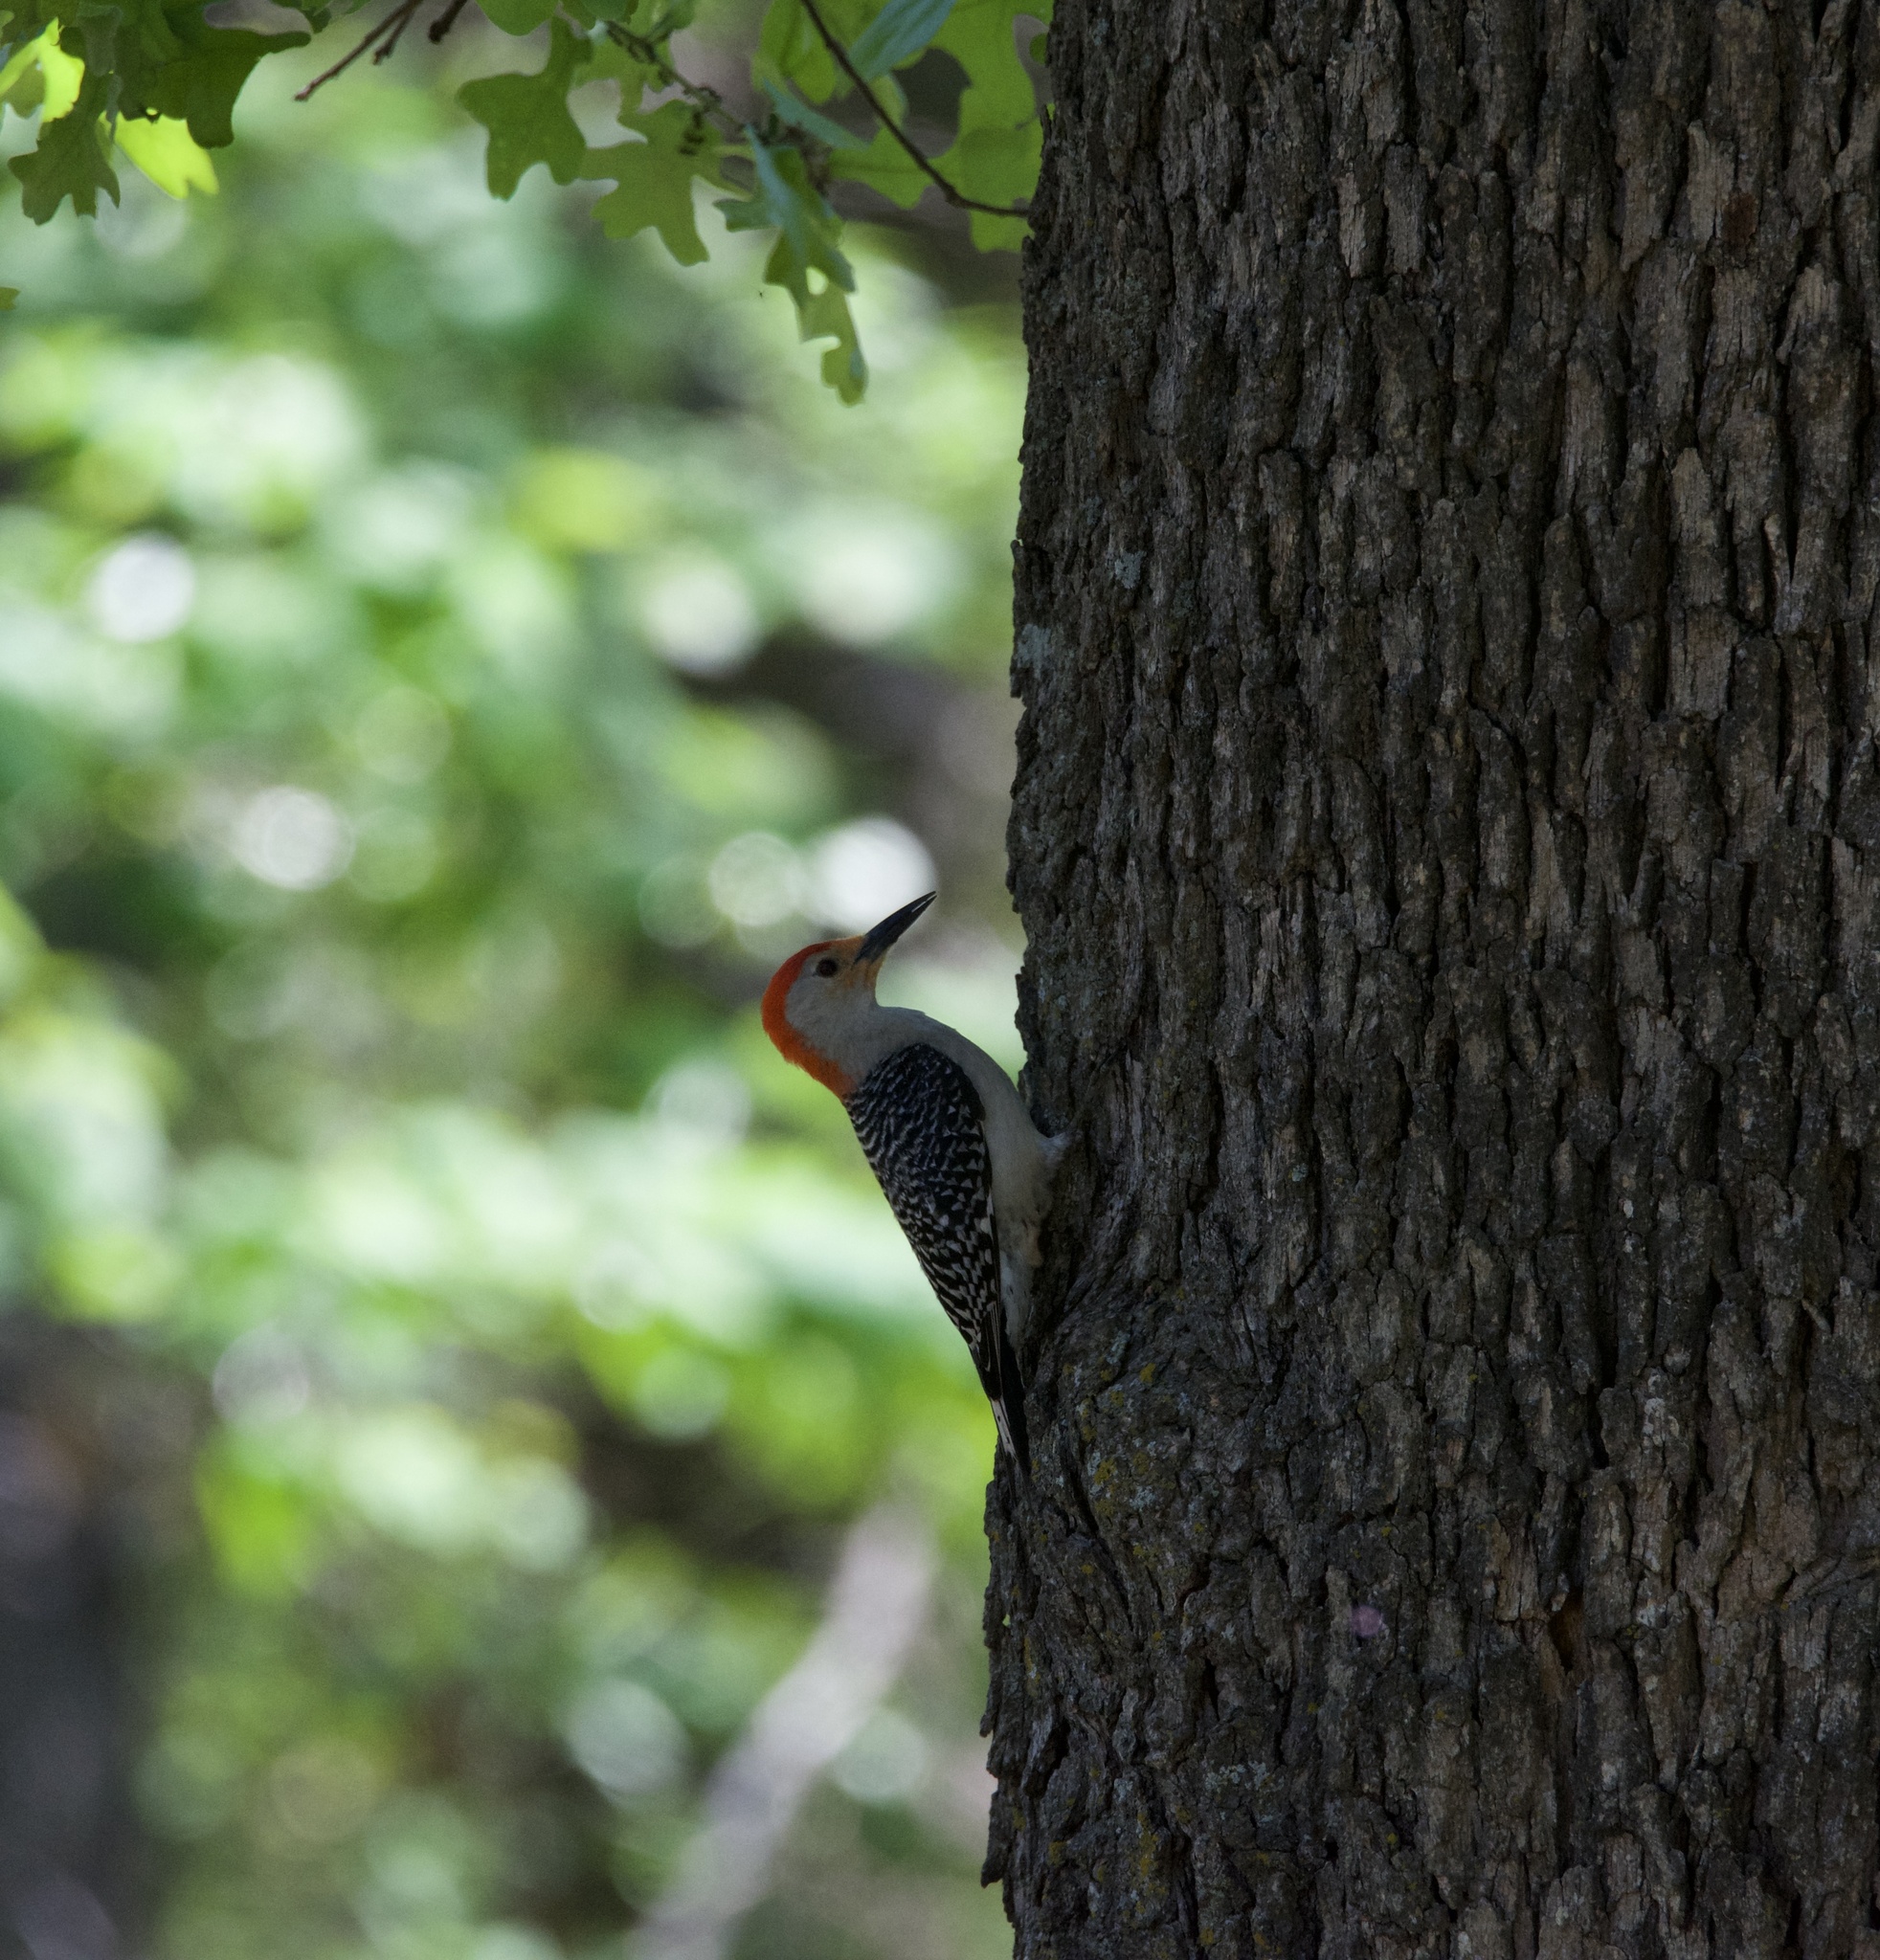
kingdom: Animalia
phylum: Chordata
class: Aves
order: Piciformes
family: Picidae
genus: Melanerpes
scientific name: Melanerpes carolinus
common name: Red-bellied woodpecker
